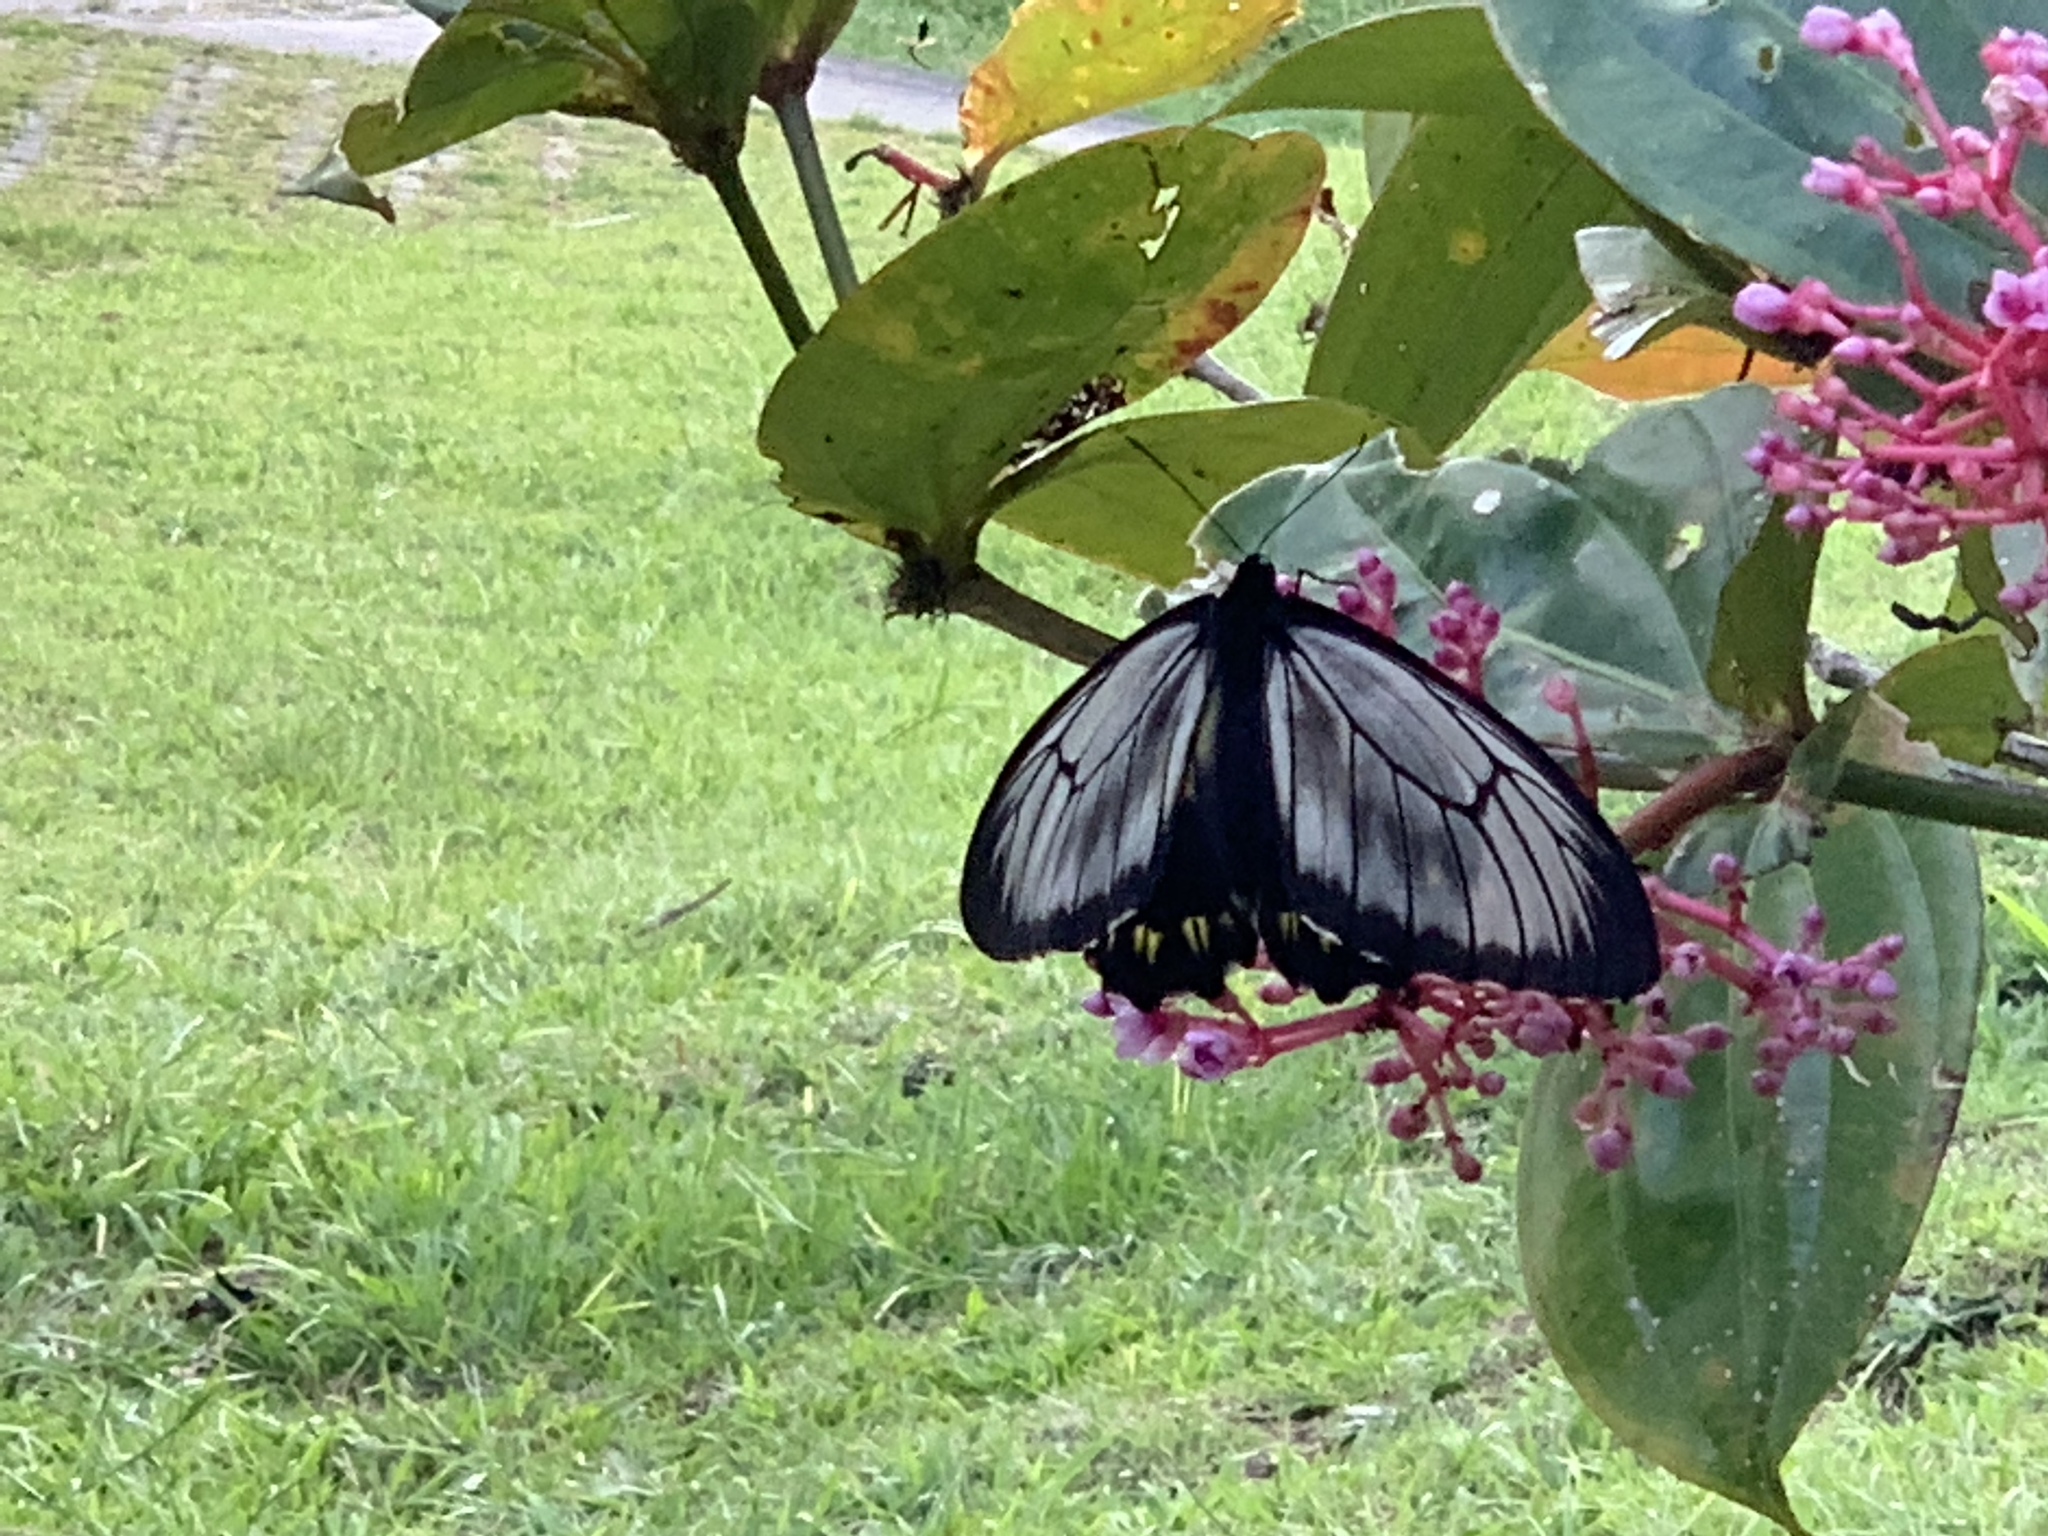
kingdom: Animalia
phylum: Arthropoda
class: Insecta
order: Lepidoptera
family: Papilionidae
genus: Troides
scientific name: Troides andromache
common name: Borneo birdwing
